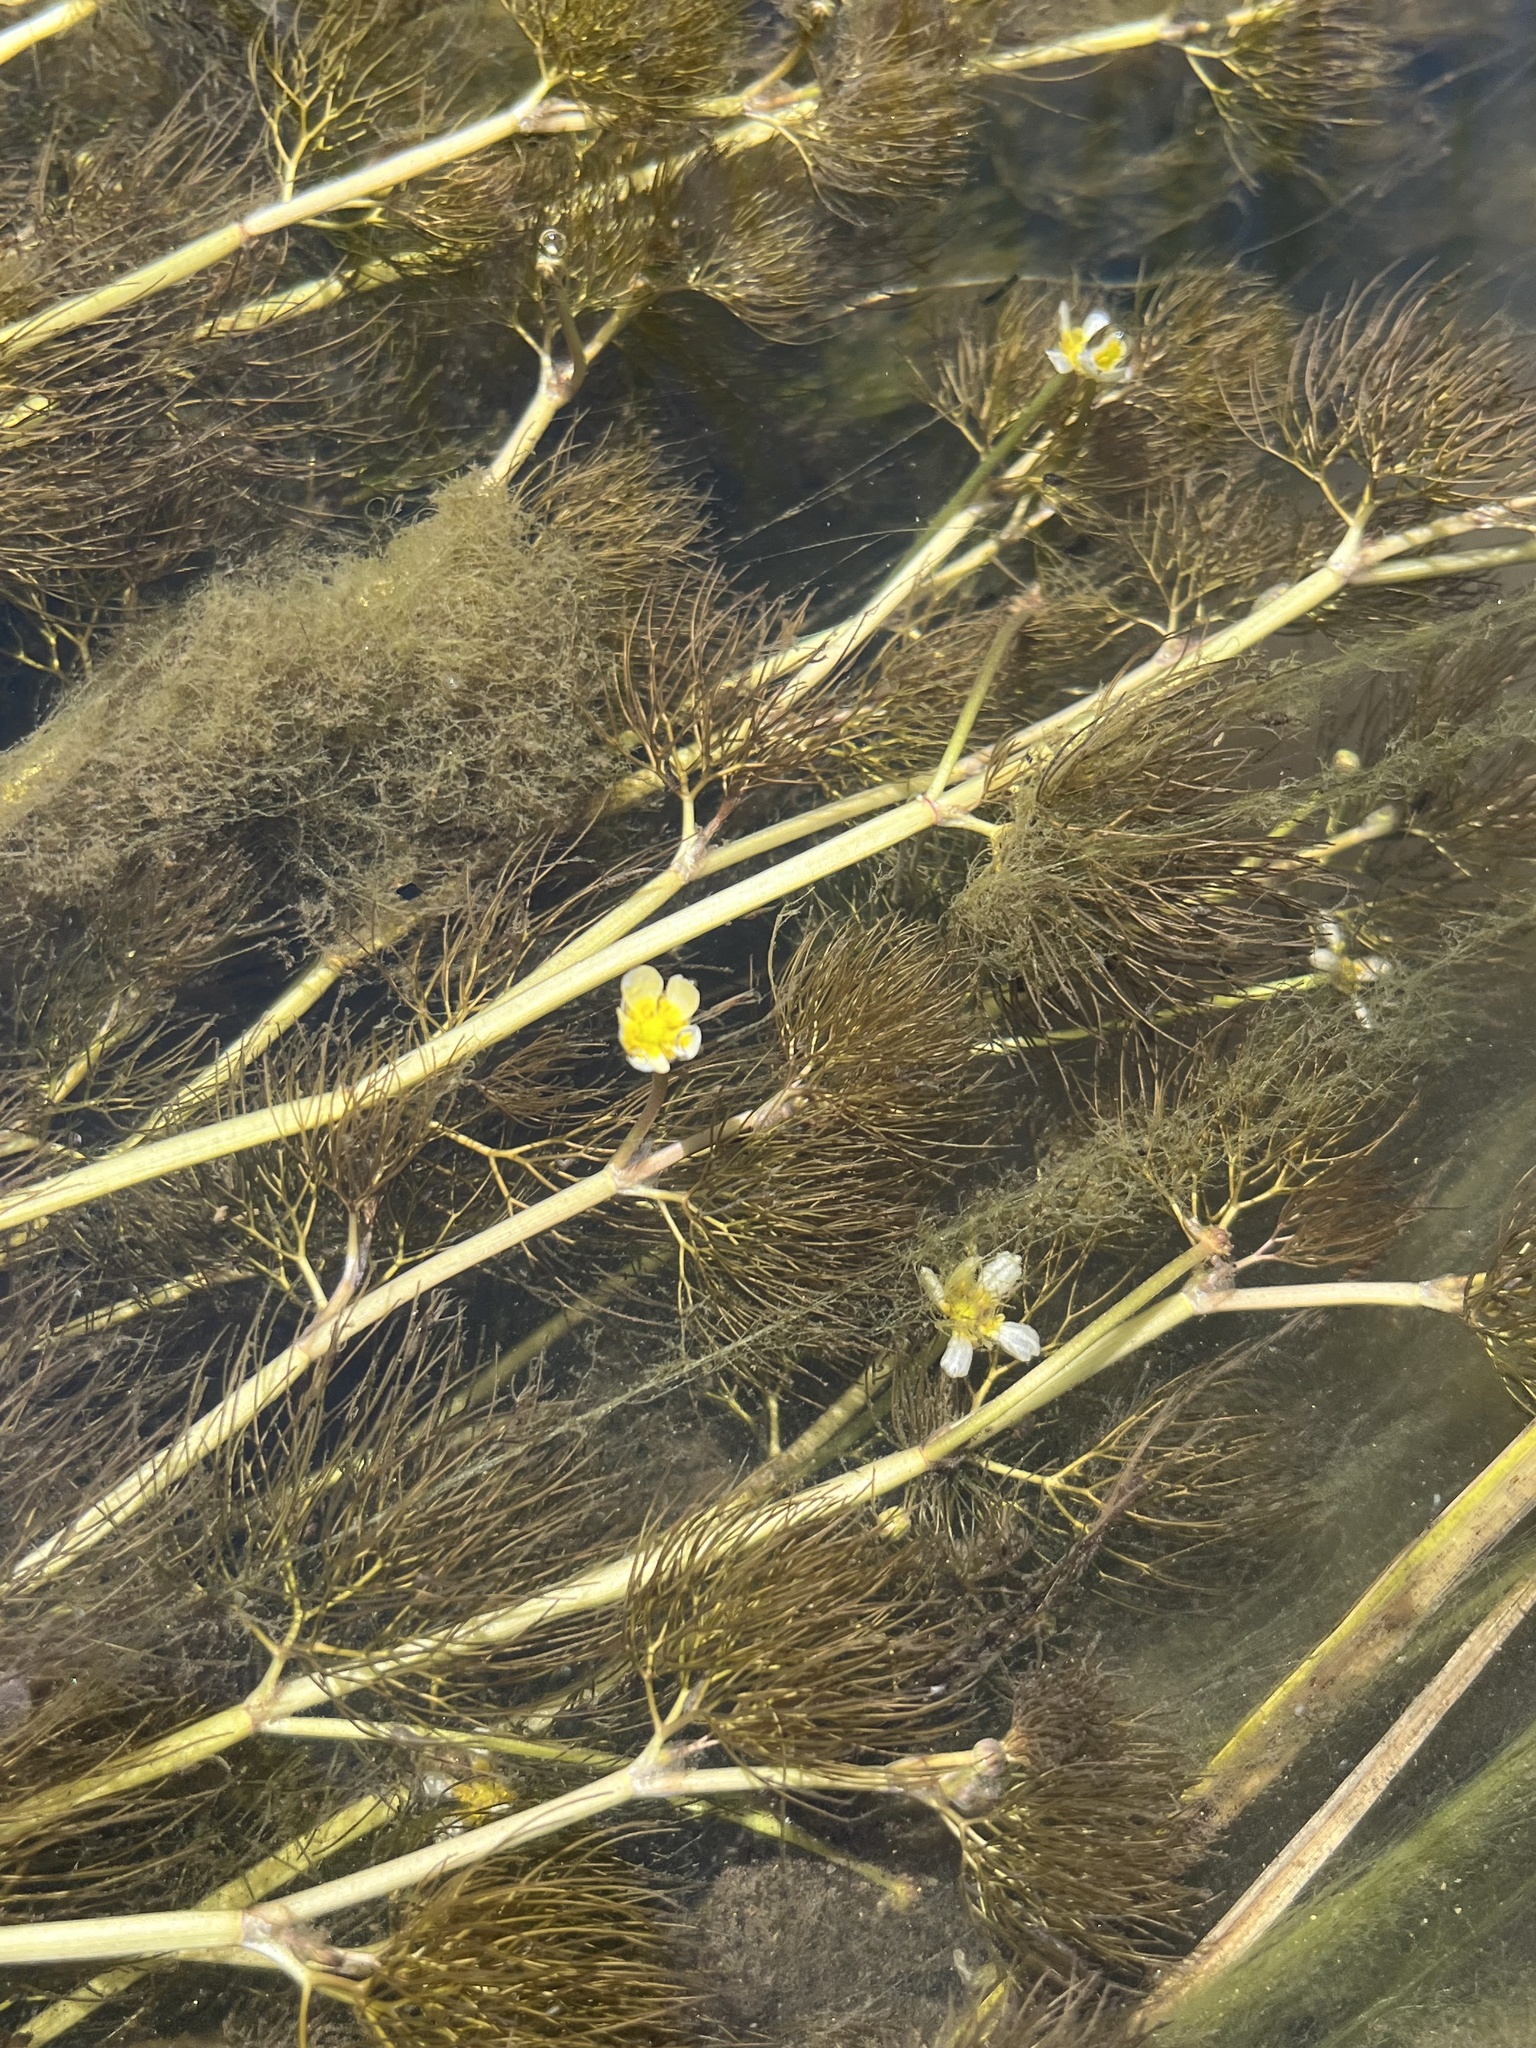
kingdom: Plantae
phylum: Tracheophyta
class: Magnoliopsida
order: Ranunculales
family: Ranunculaceae
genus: Ranunculus
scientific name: Ranunculus aquatilis
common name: Common water-crowfoot
